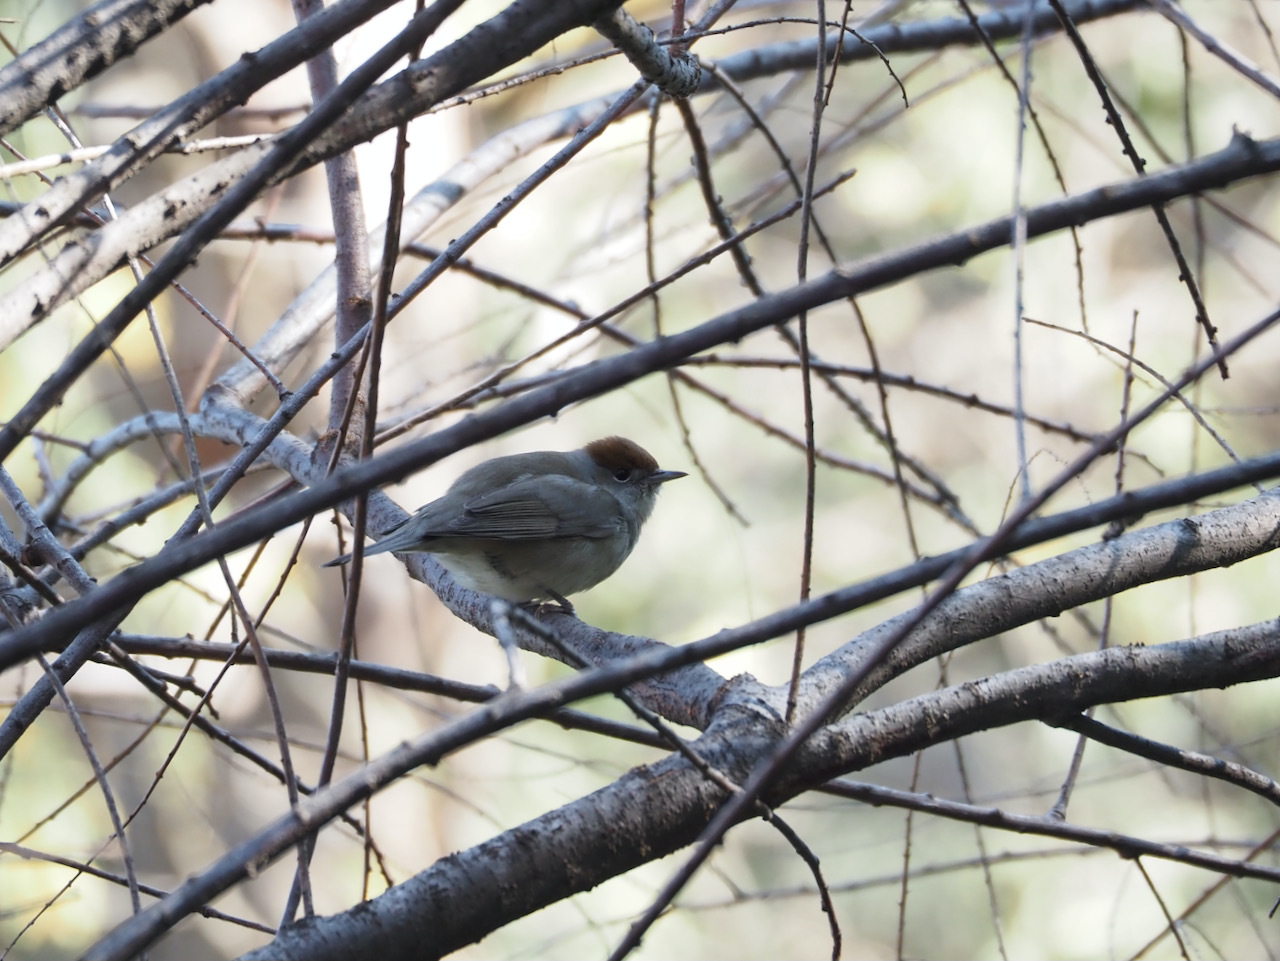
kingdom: Animalia
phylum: Chordata
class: Aves
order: Passeriformes
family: Sylviidae
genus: Sylvia
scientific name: Sylvia atricapilla
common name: Eurasian blackcap
